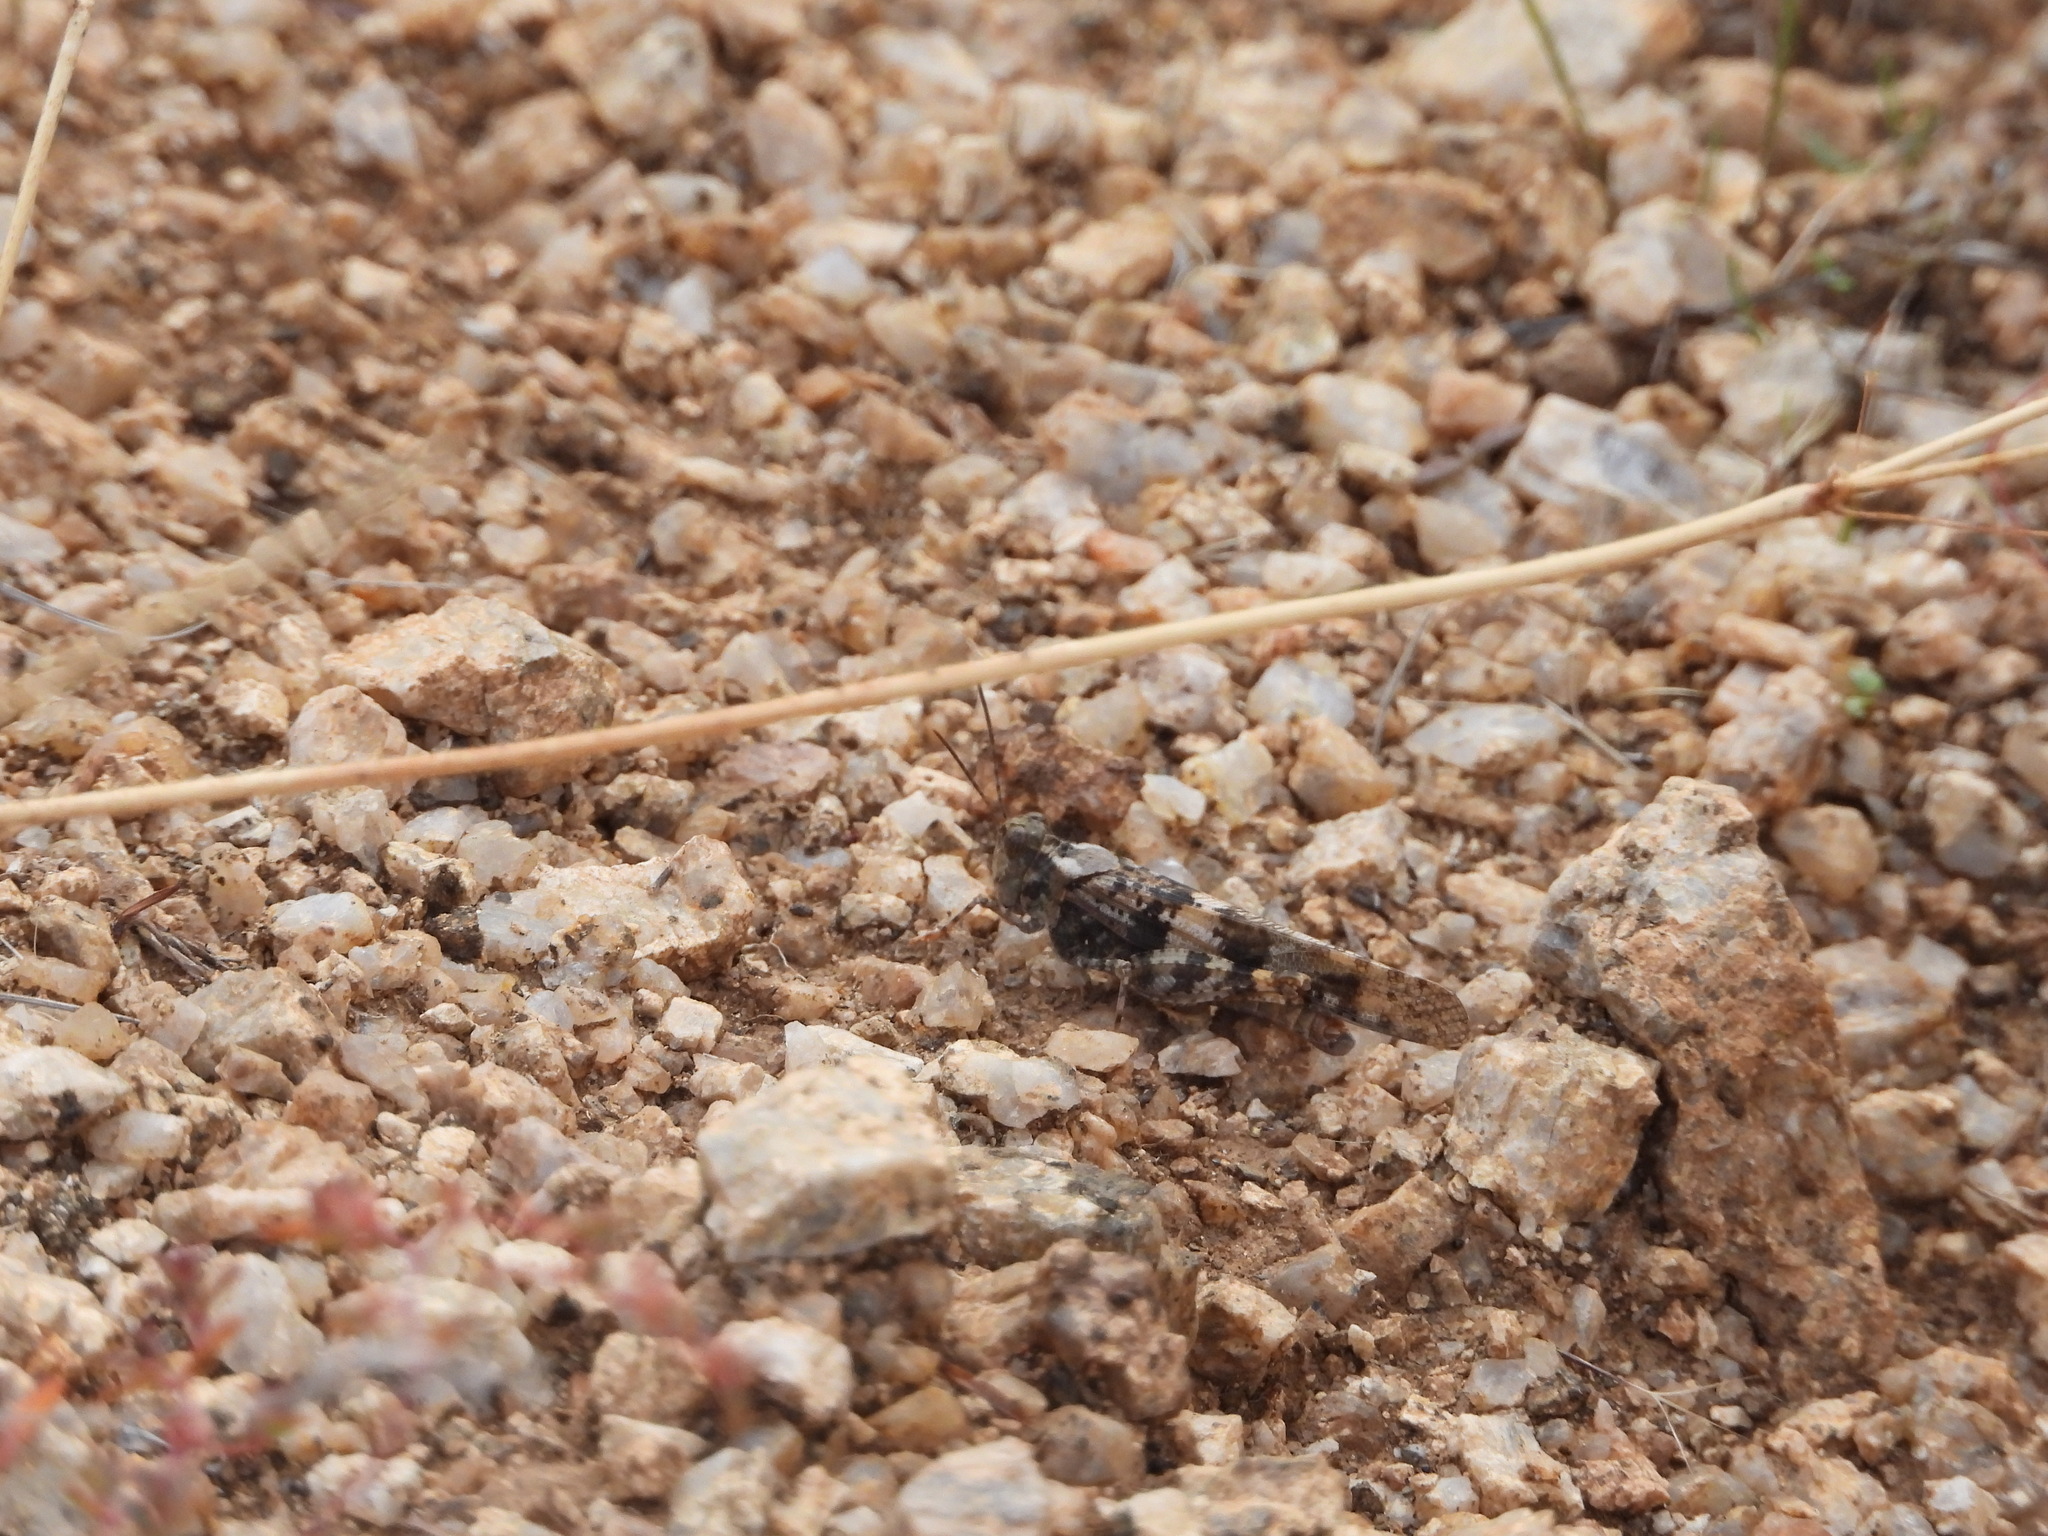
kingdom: Animalia
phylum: Arthropoda
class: Insecta
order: Orthoptera
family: Acrididae
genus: Trimerotropis
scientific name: Trimerotropis pallidipennis
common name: Pallid-winged grasshopper
